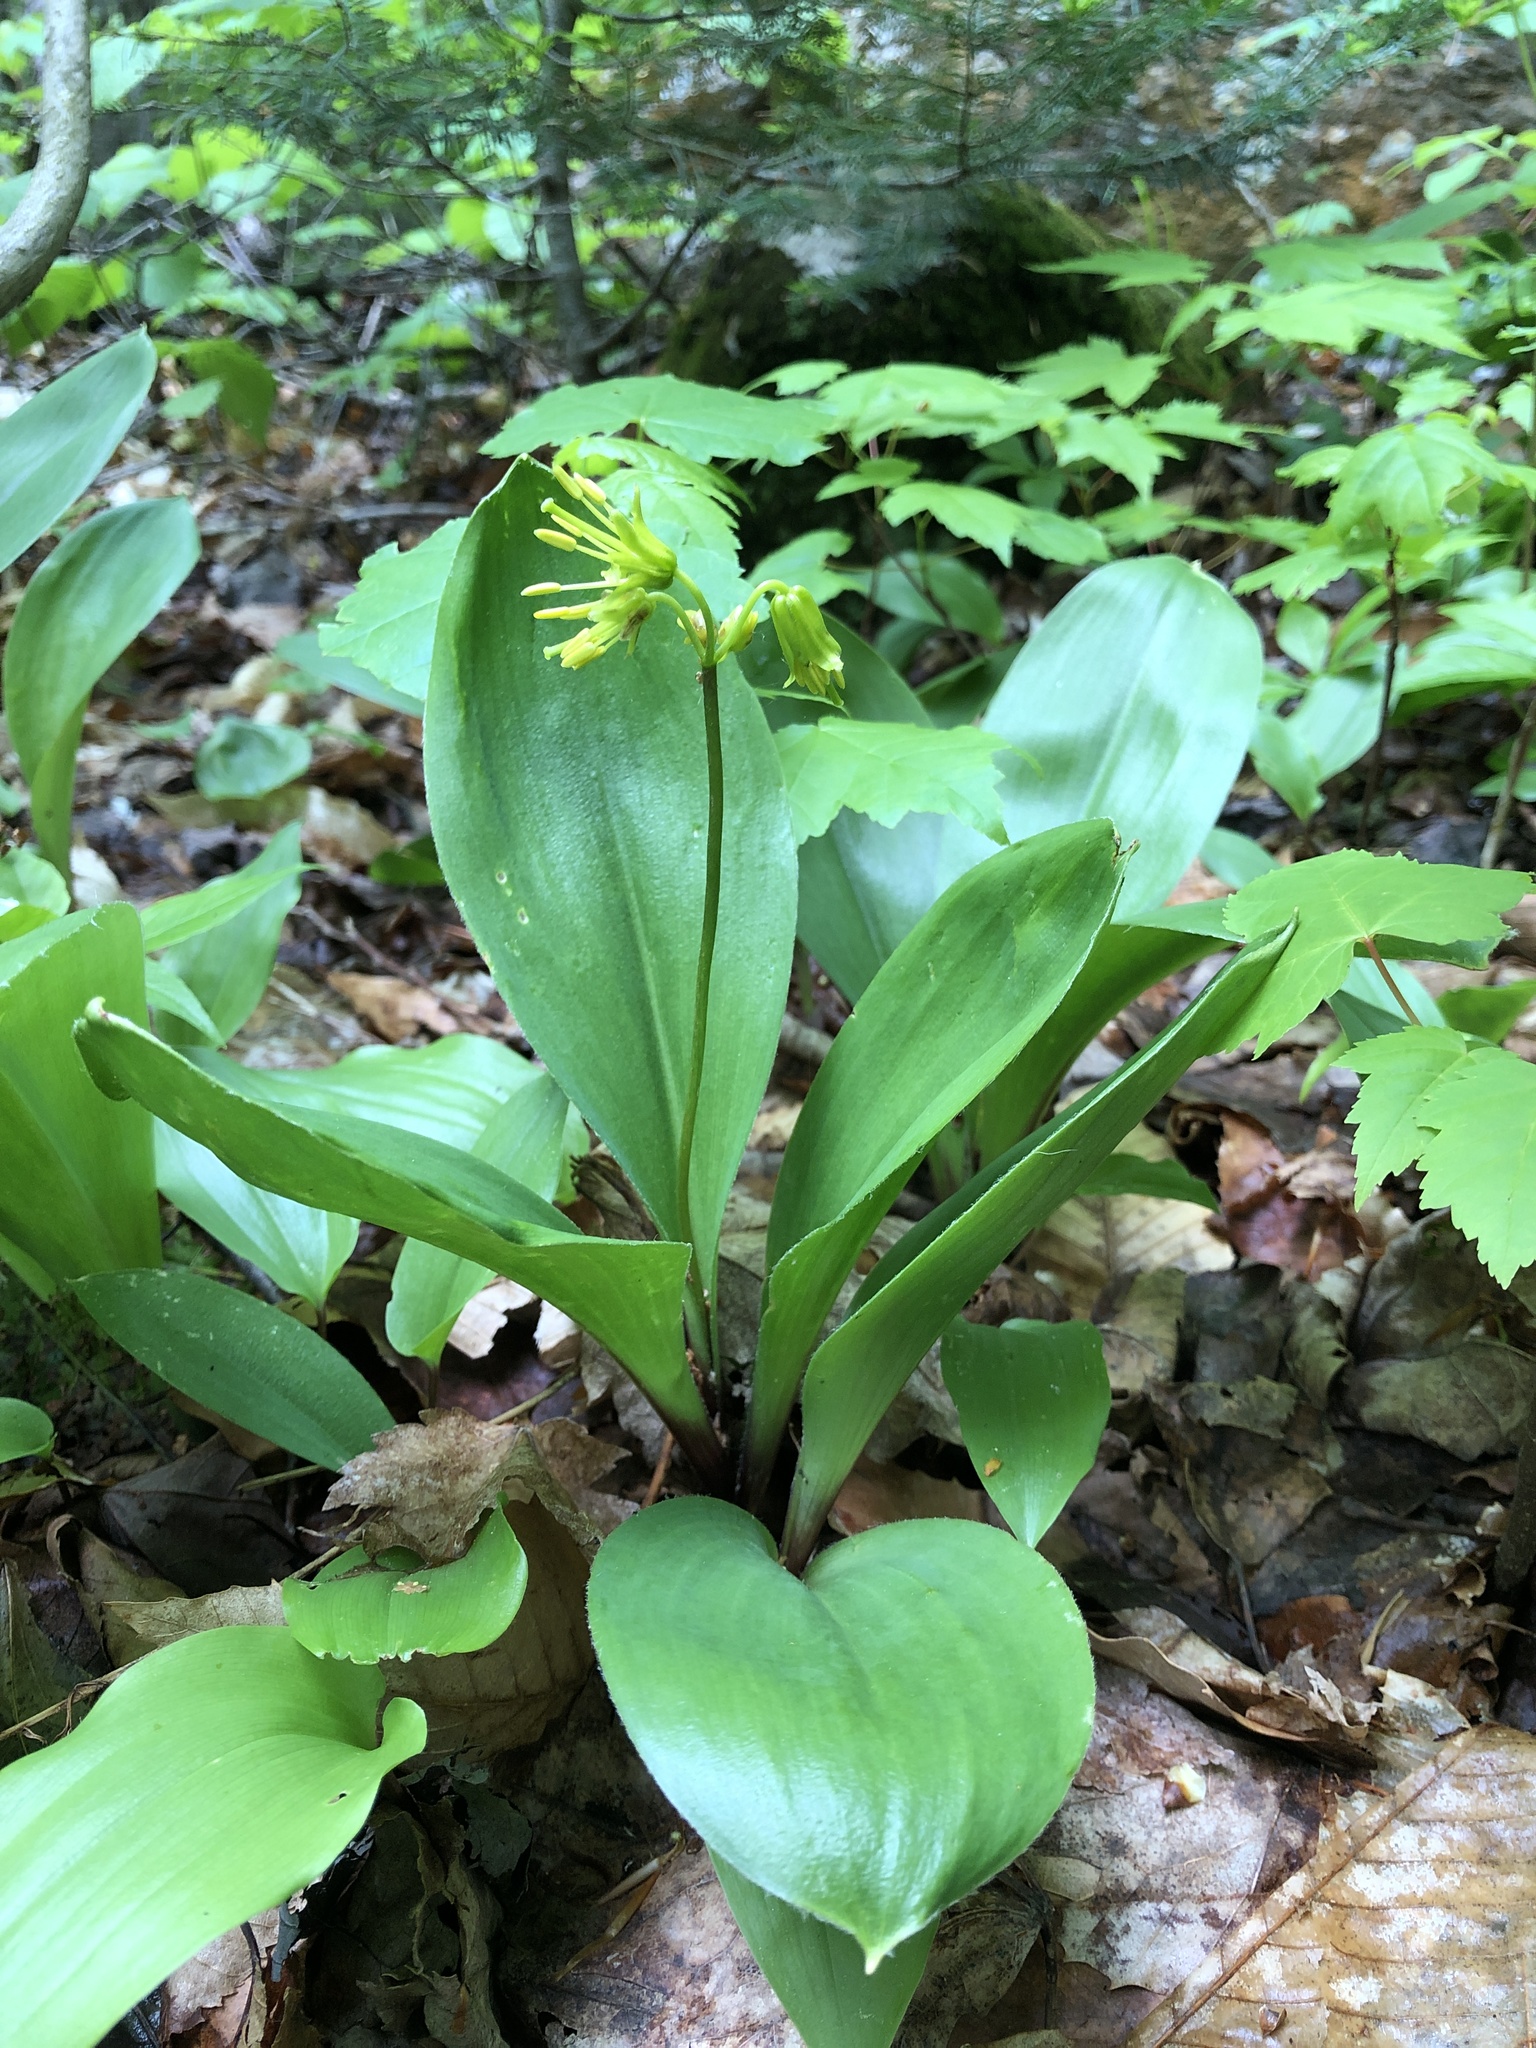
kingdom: Plantae
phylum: Tracheophyta
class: Liliopsida
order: Liliales
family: Liliaceae
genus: Clintonia
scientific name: Clintonia borealis
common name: Yellow clintonia
